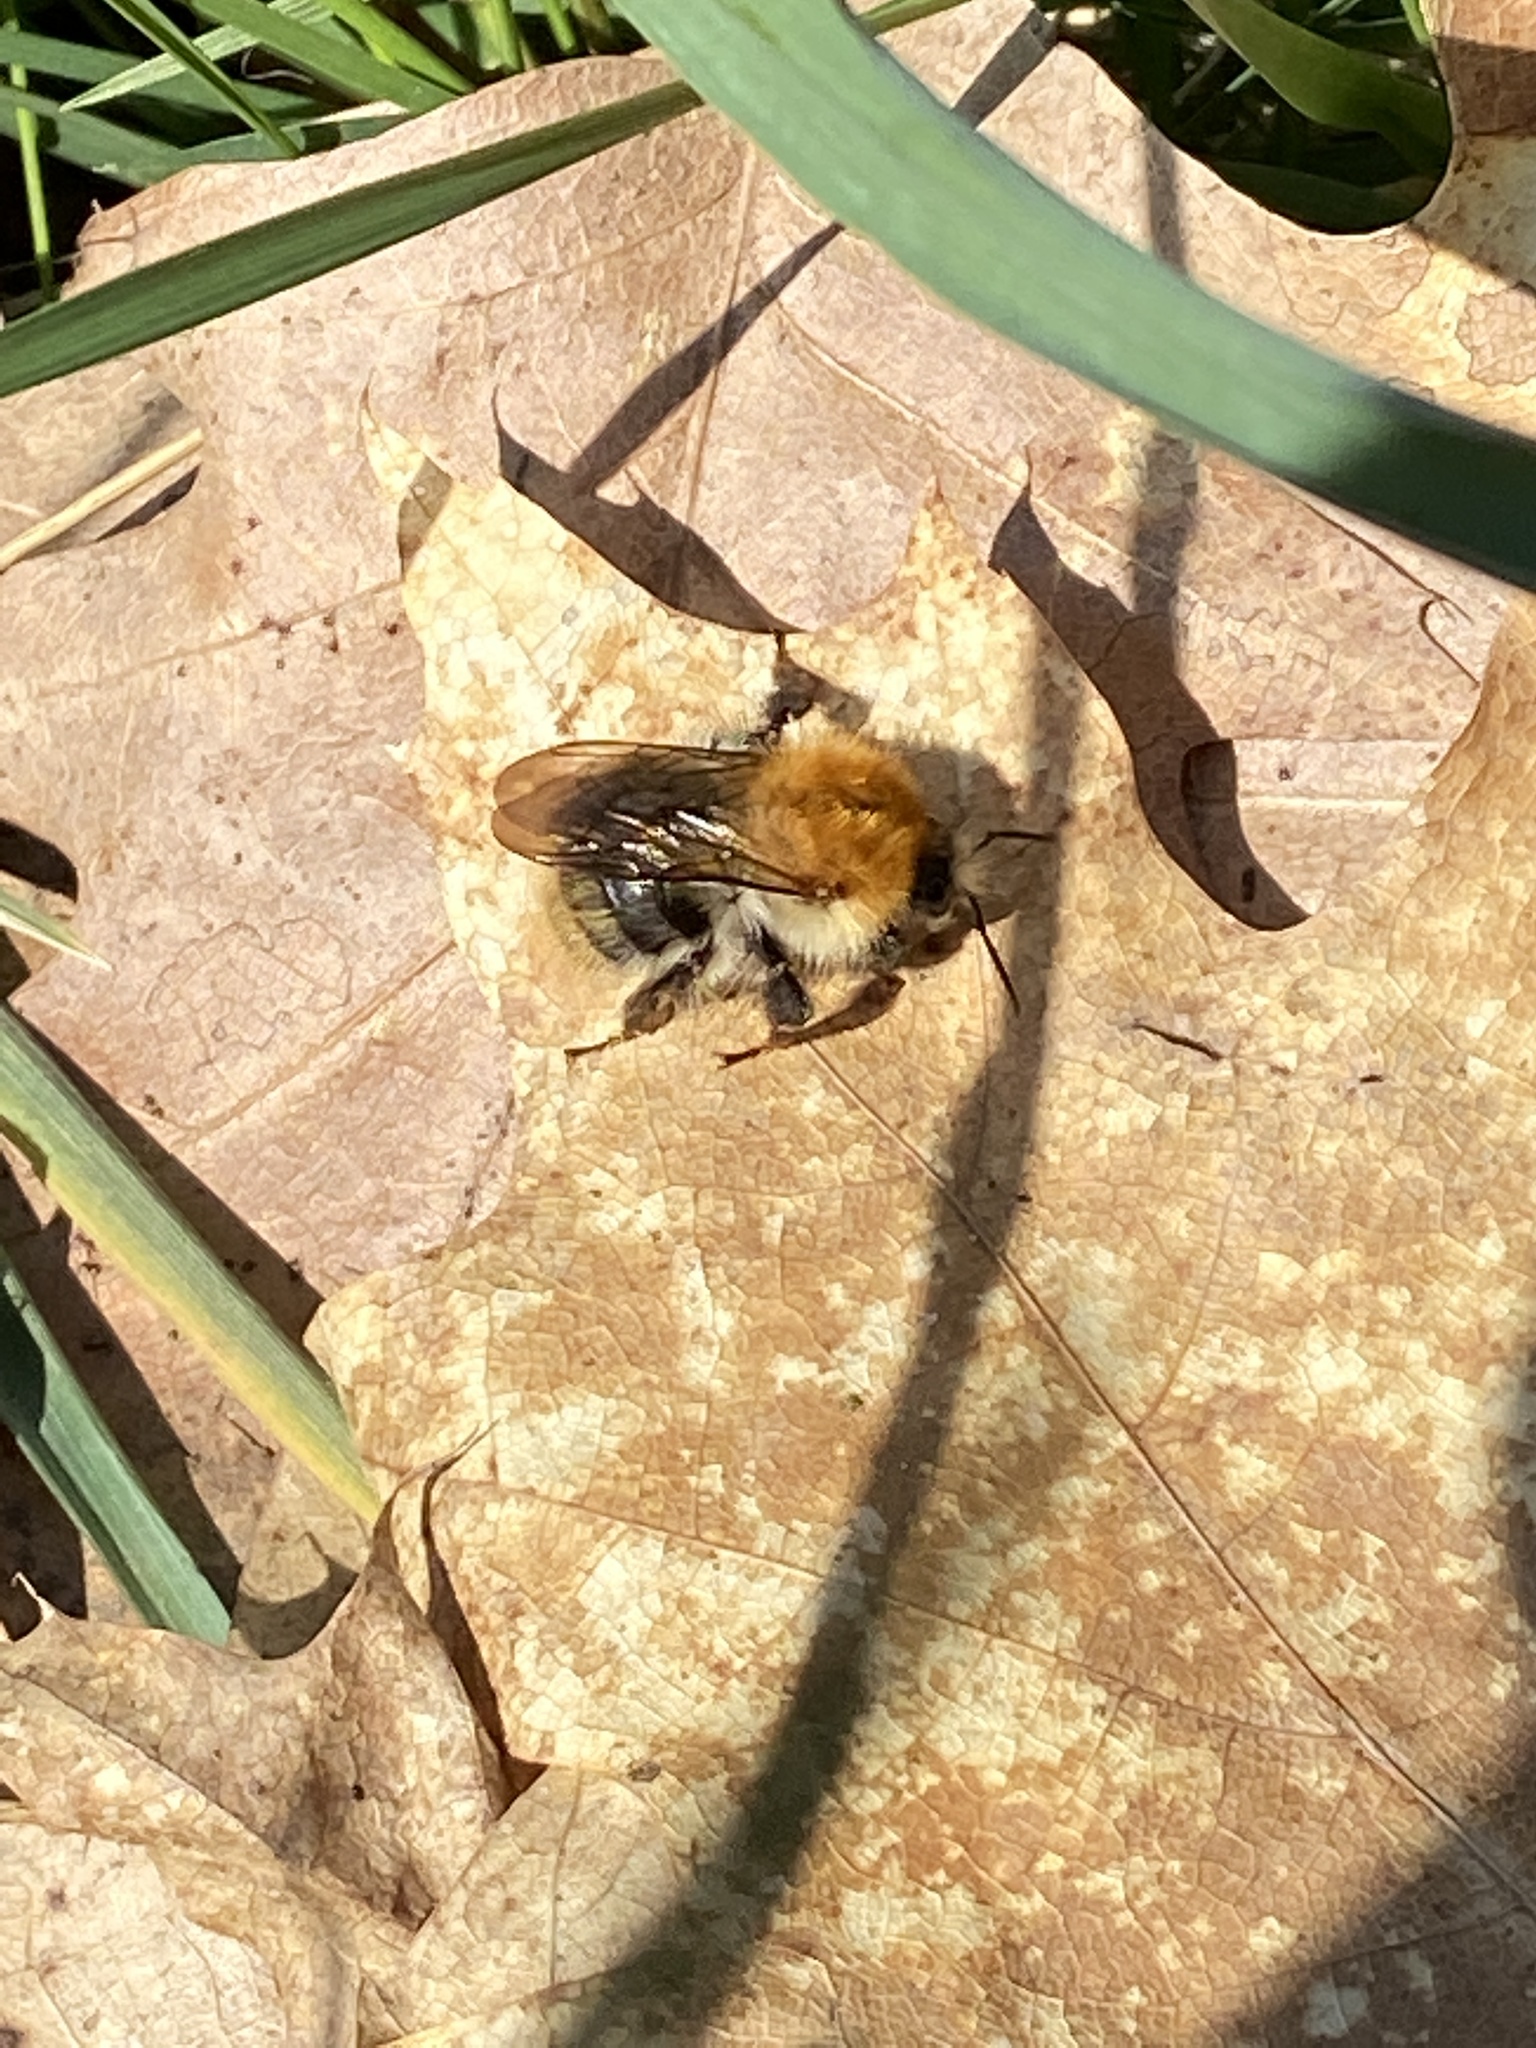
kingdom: Animalia
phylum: Arthropoda
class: Insecta
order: Hymenoptera
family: Apidae
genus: Bombus
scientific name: Bombus pascuorum
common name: Common carder bee
